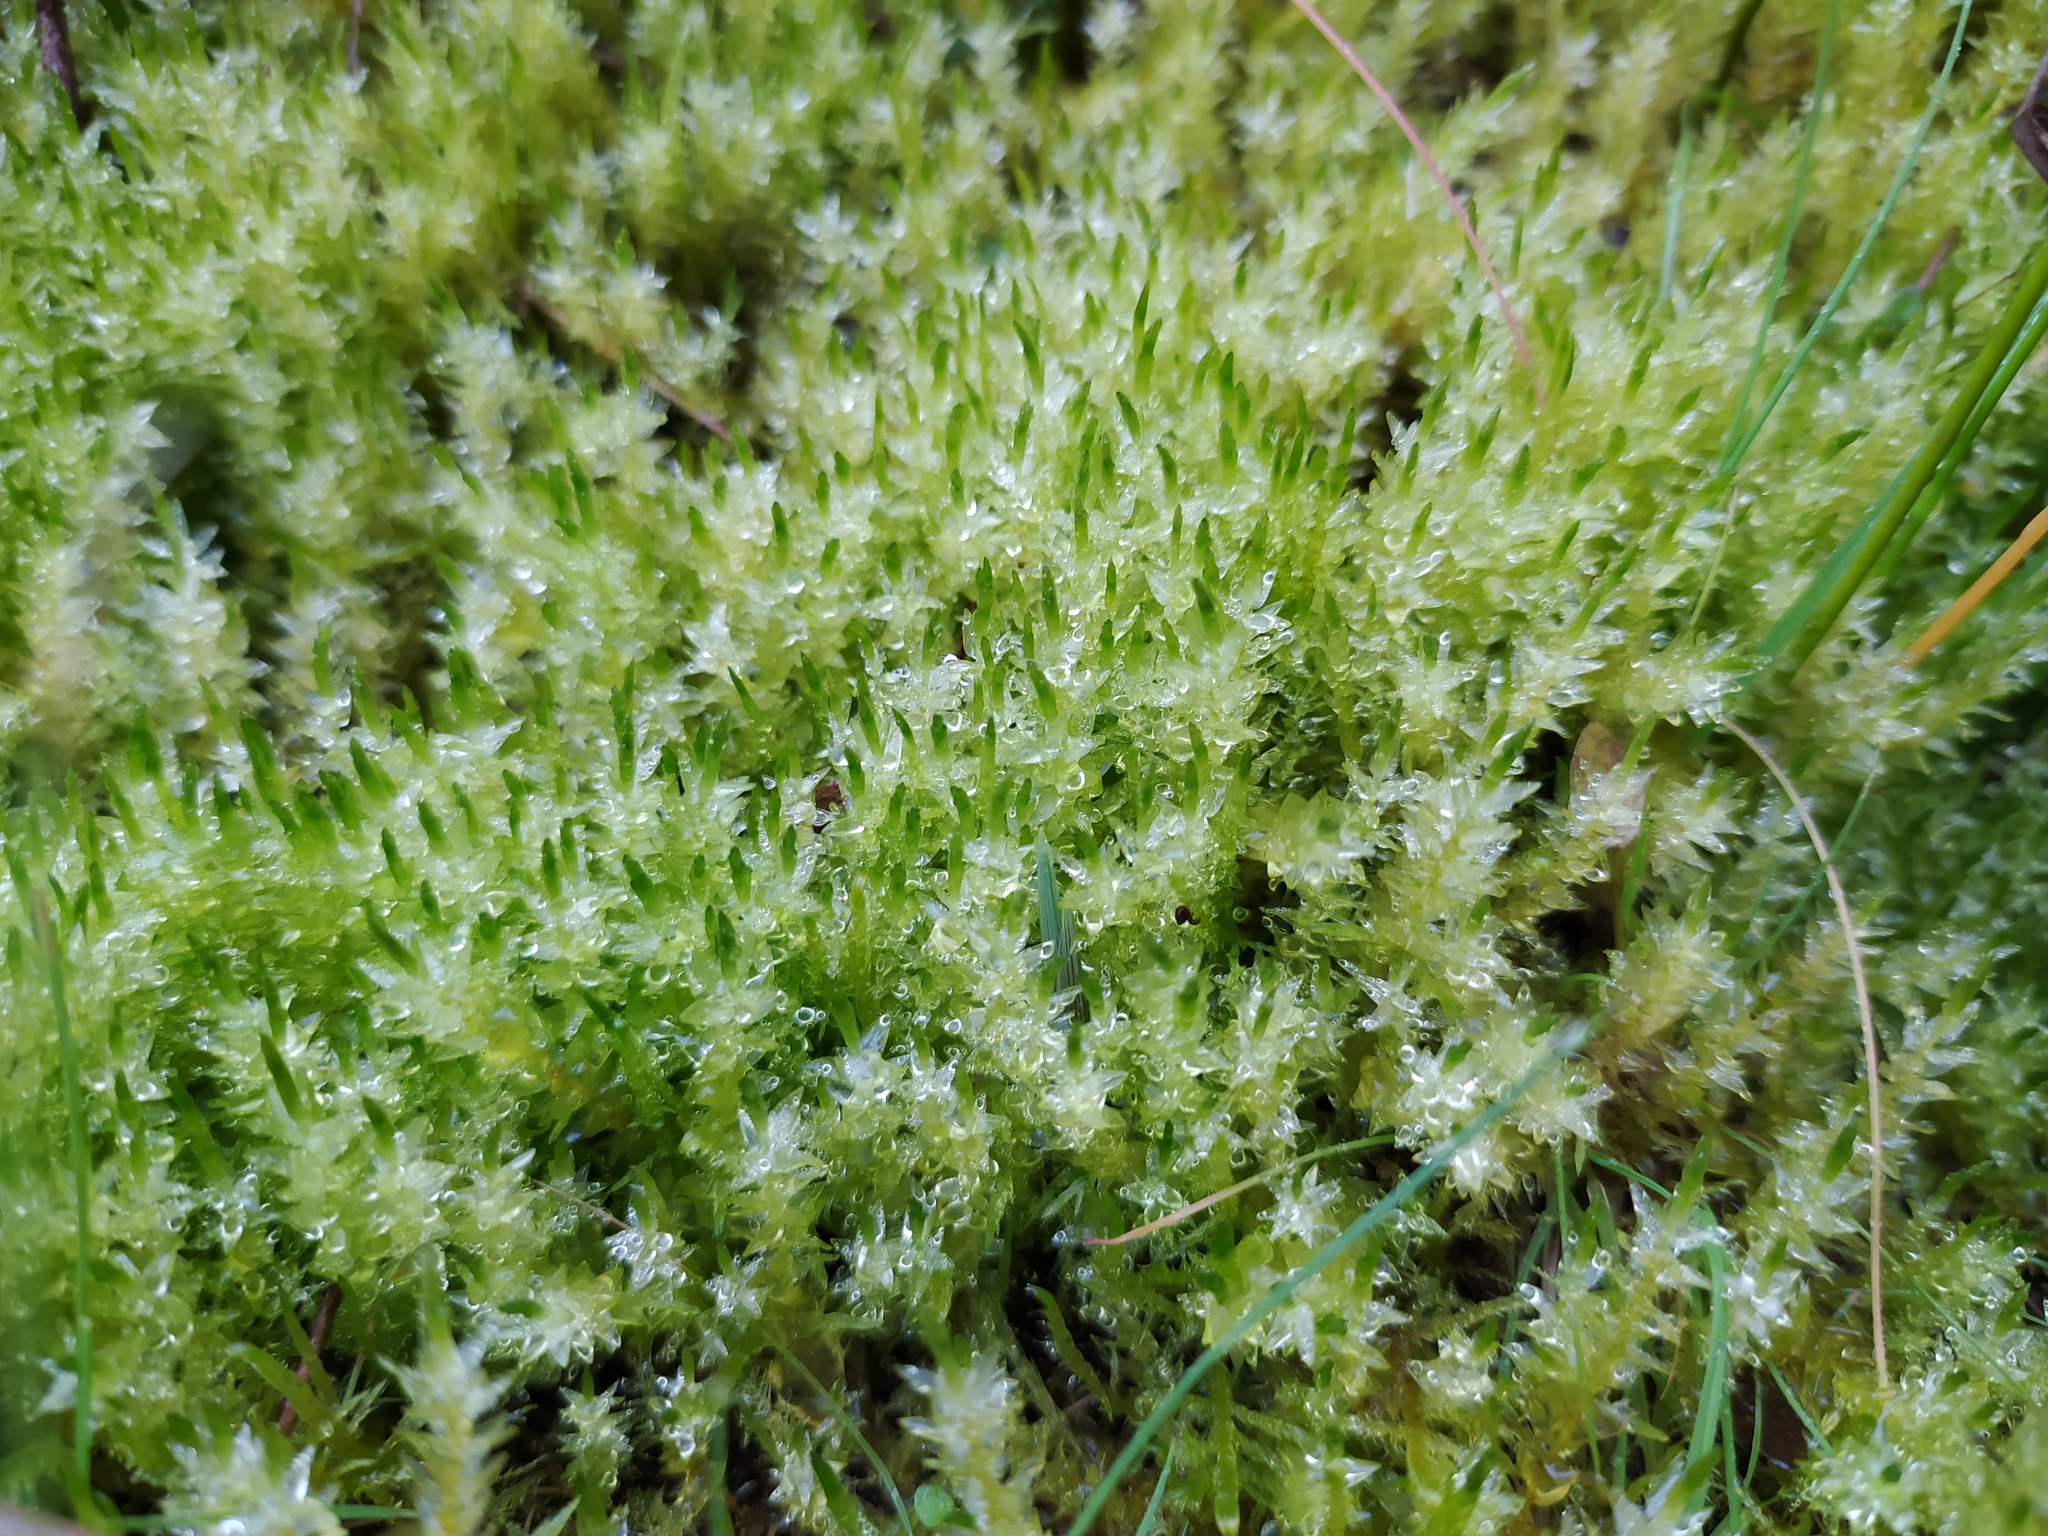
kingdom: Plantae
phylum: Bryophyta
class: Bryopsida
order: Hypnales
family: Calliergonaceae
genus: Calliergon
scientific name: Calliergon cordifolium
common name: Heart-leaved spear moss
